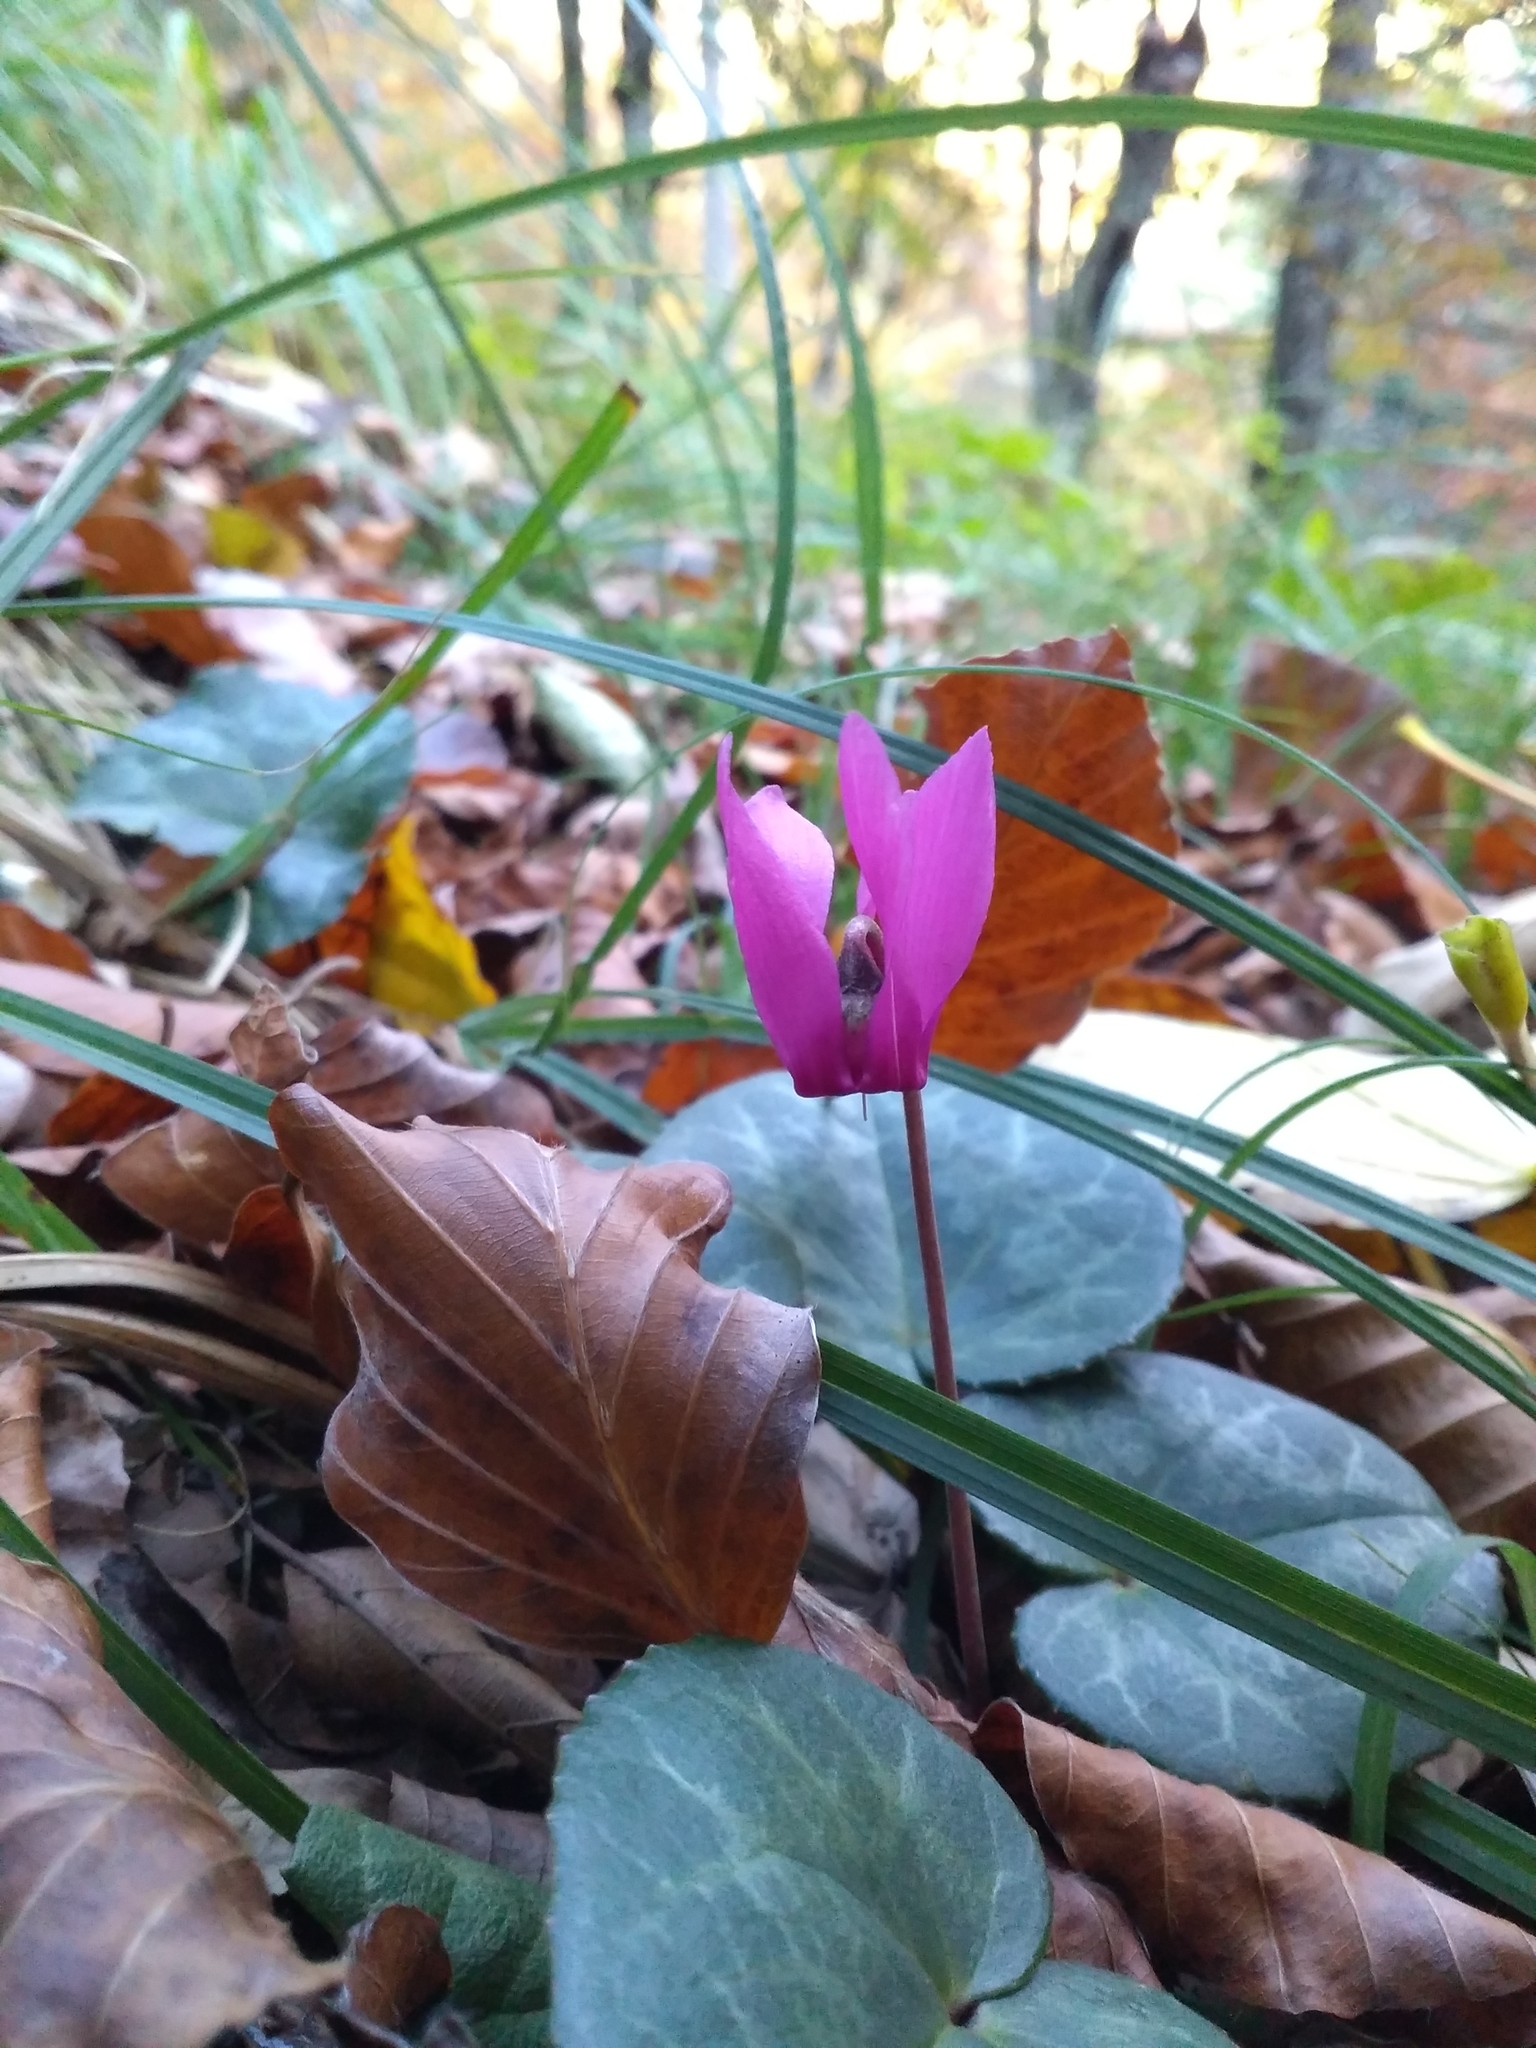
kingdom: Plantae
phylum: Tracheophyta
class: Magnoliopsida
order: Ericales
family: Primulaceae
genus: Cyclamen
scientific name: Cyclamen purpurascens
